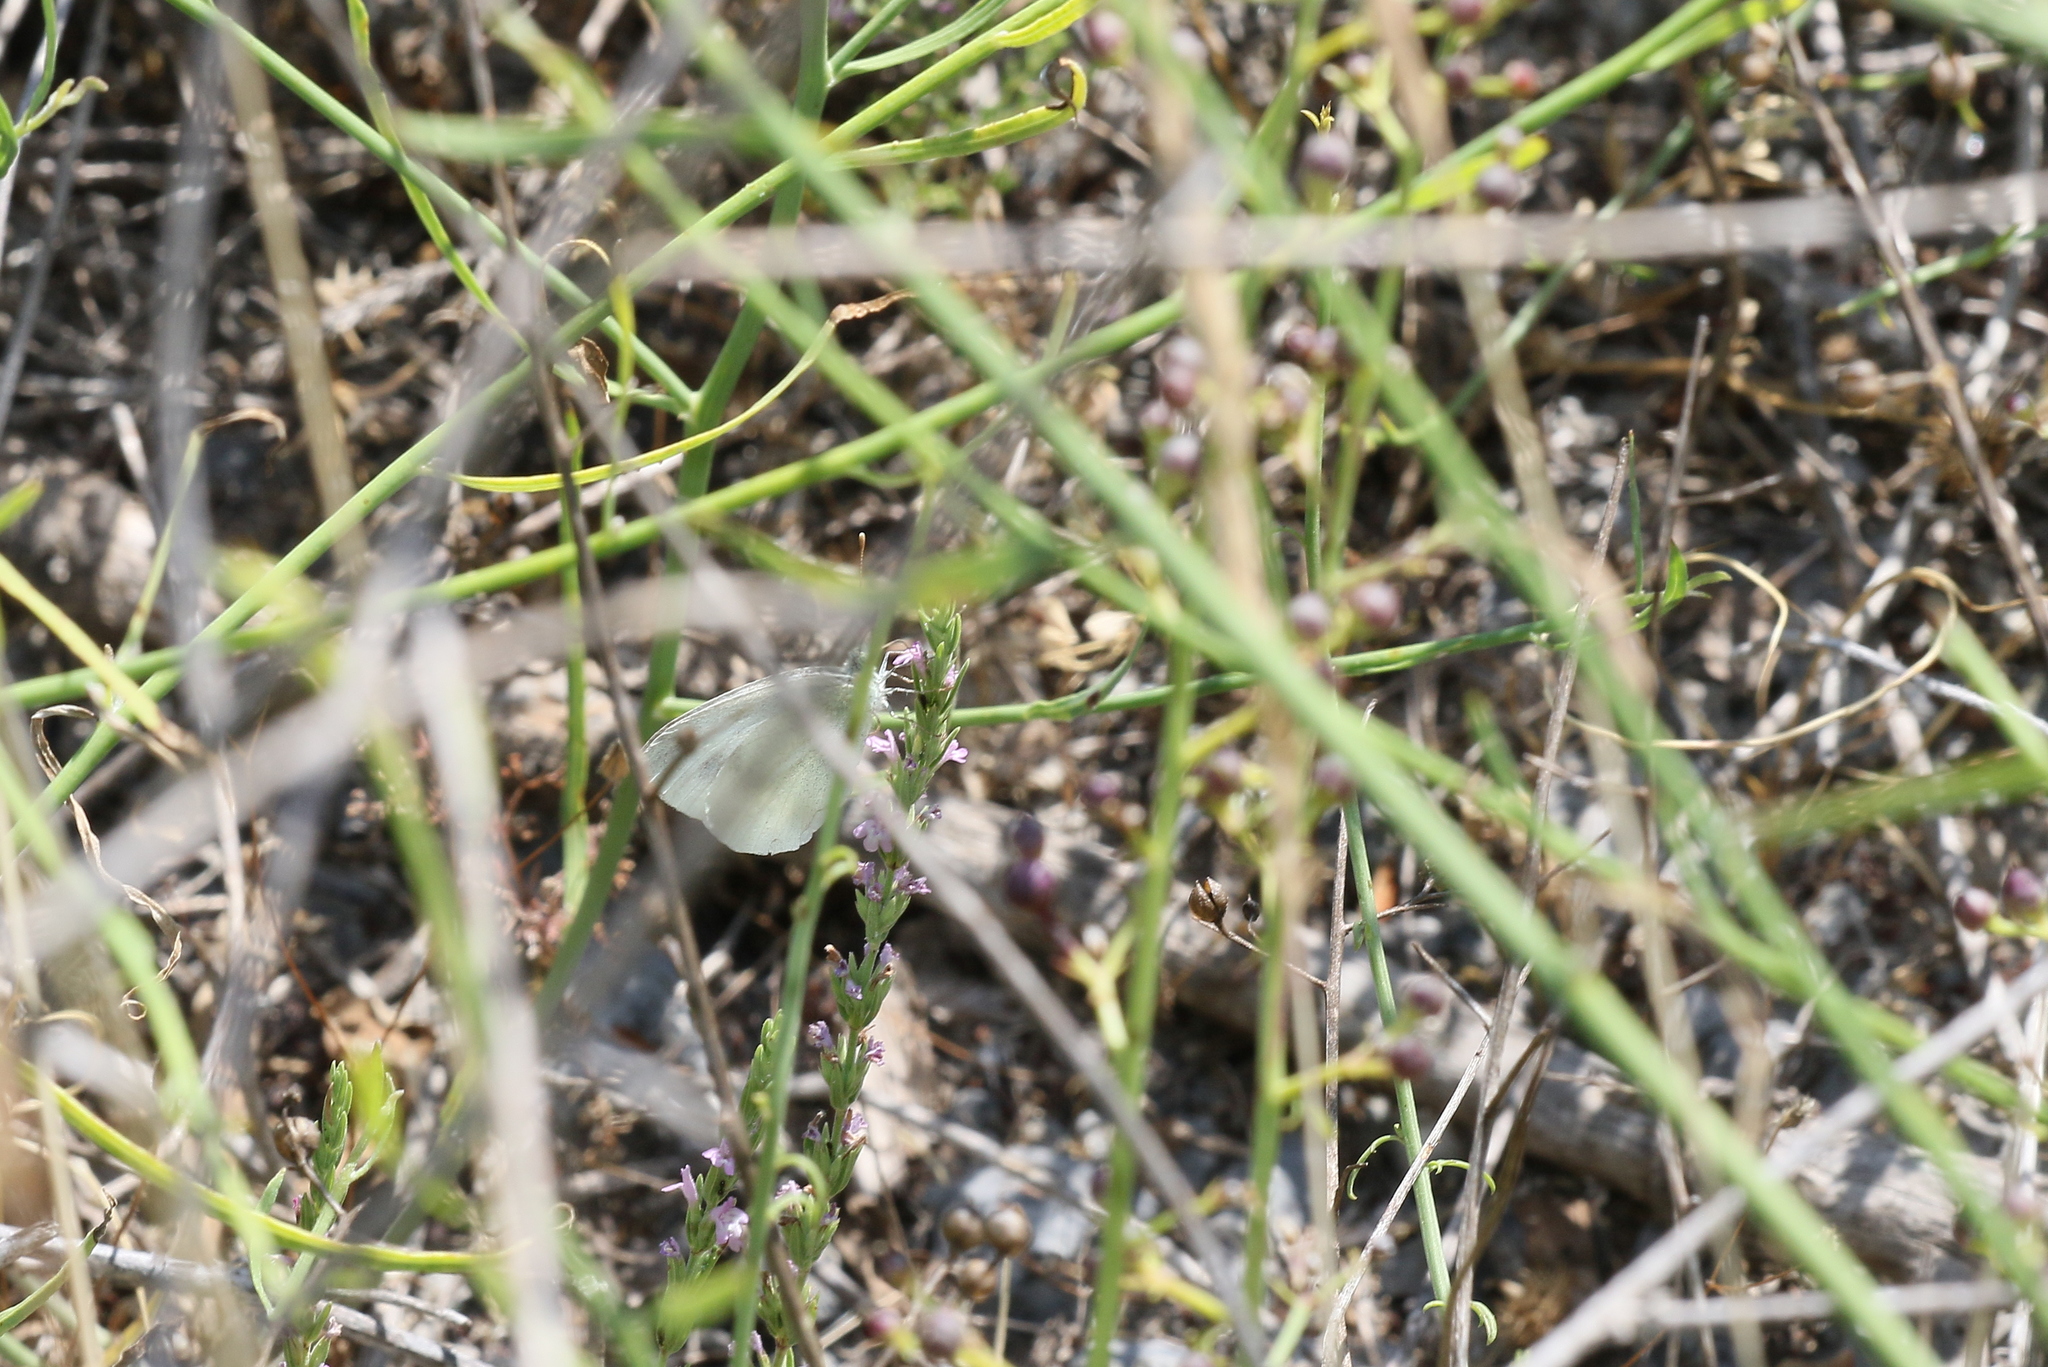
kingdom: Animalia
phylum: Arthropoda
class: Insecta
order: Lepidoptera
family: Pieridae
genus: Pieris
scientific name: Pieris ergane
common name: Mountain small white
